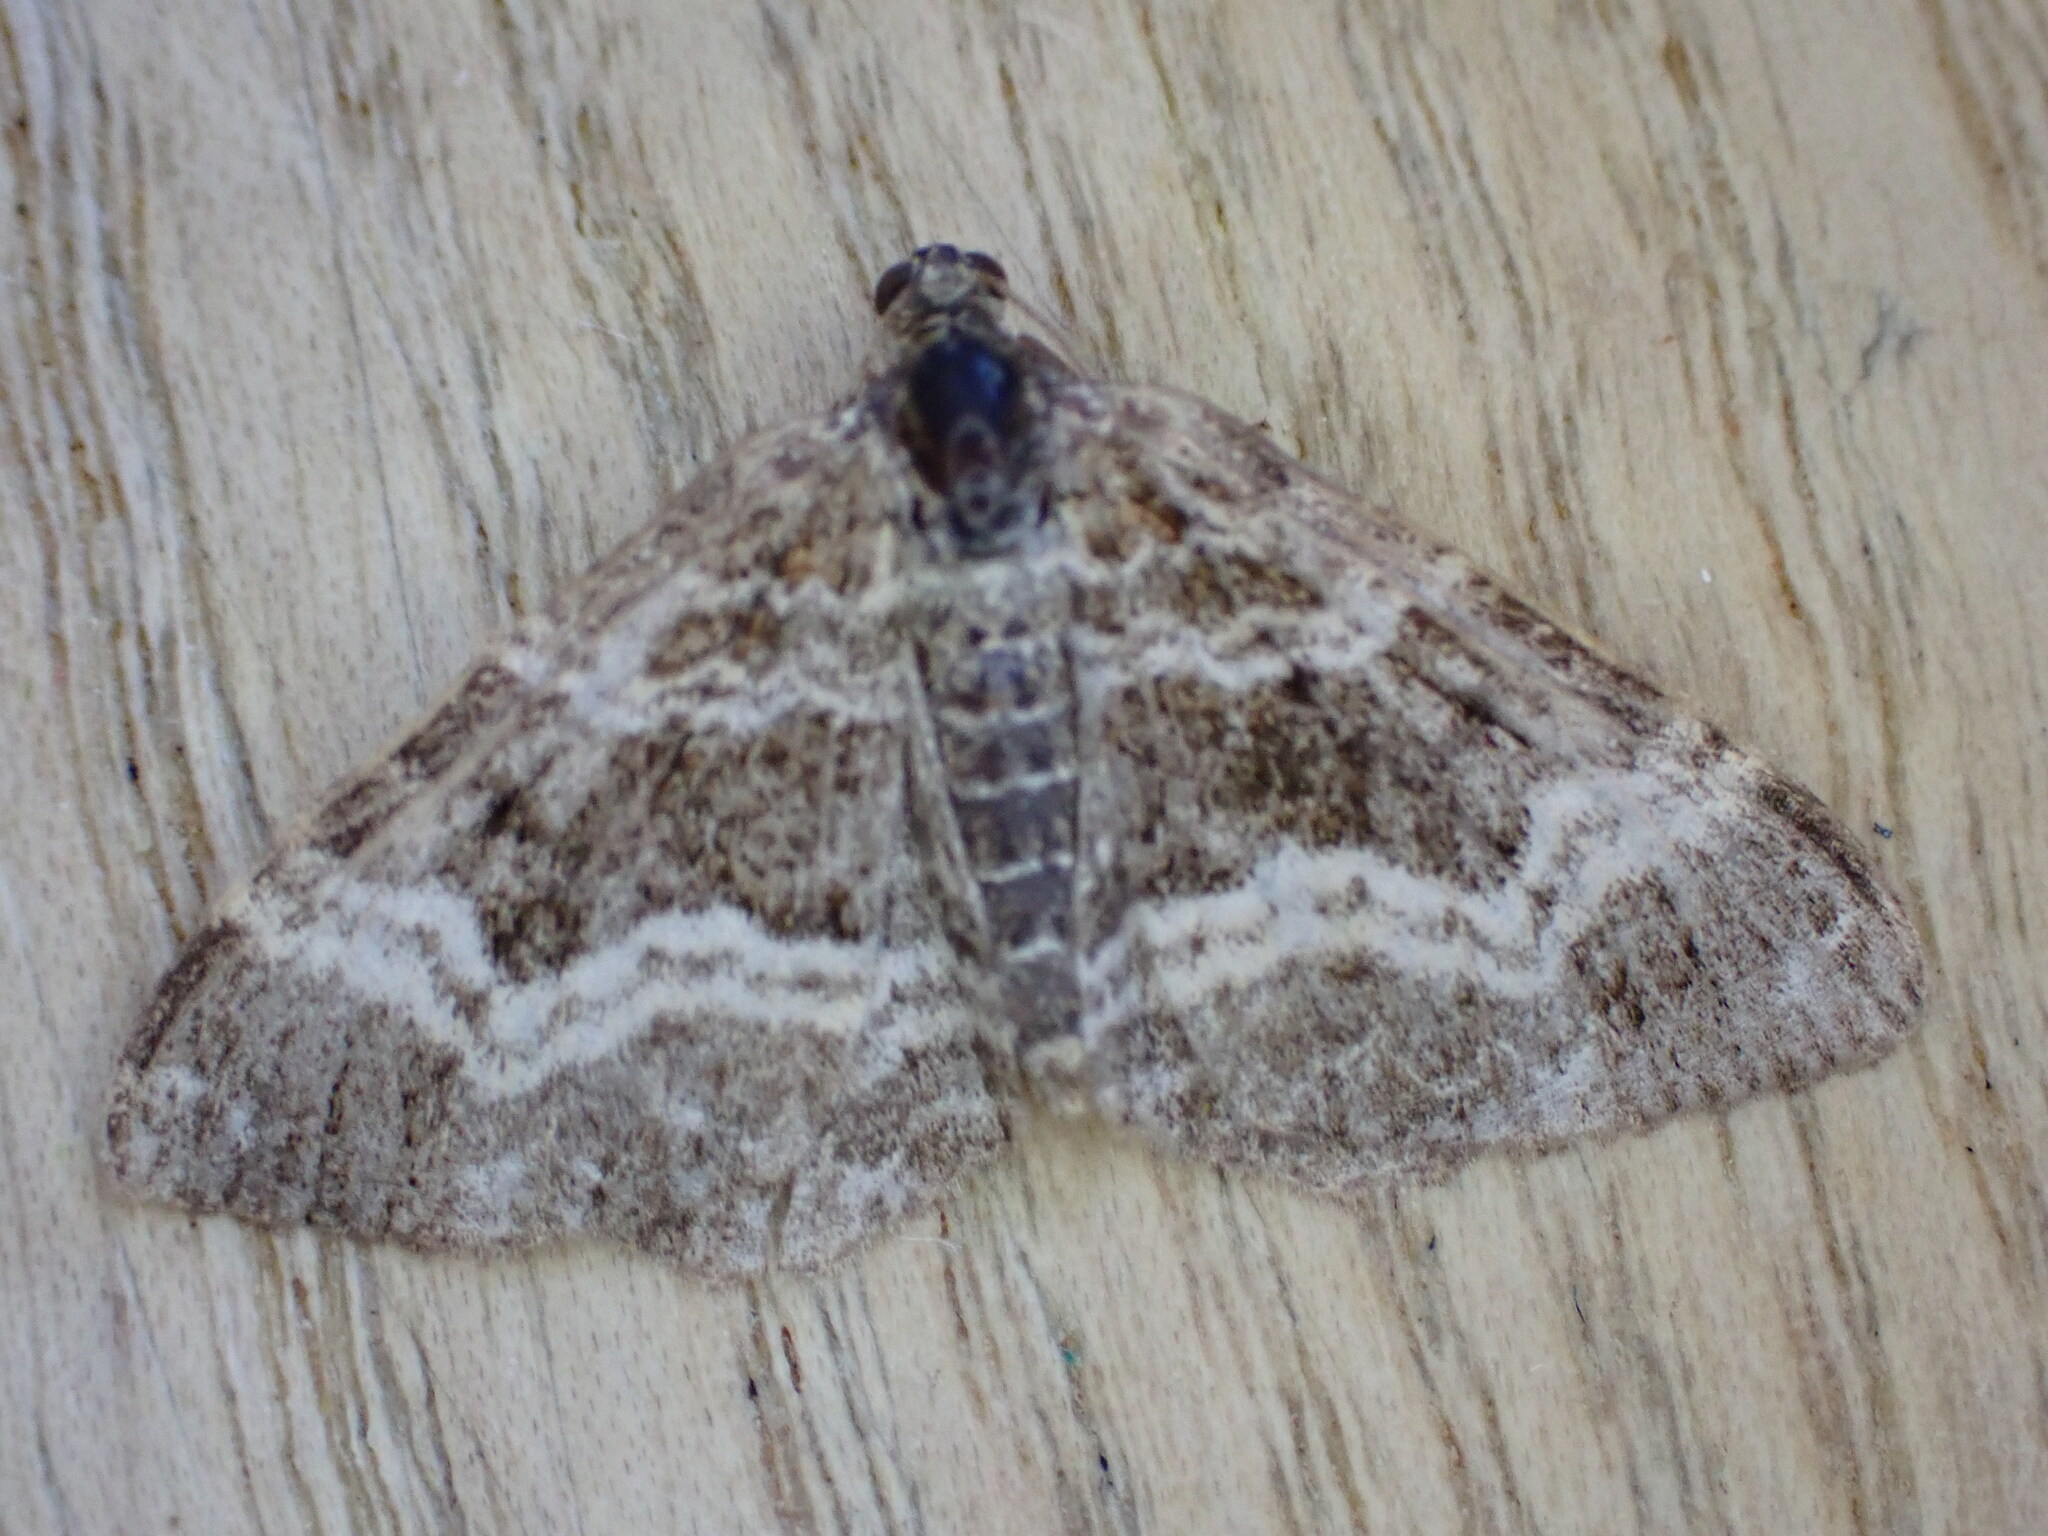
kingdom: Animalia
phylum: Arthropoda
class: Insecta
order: Lepidoptera
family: Geometridae
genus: Epirrhoe
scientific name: Epirrhoe alternata
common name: Common carpet
